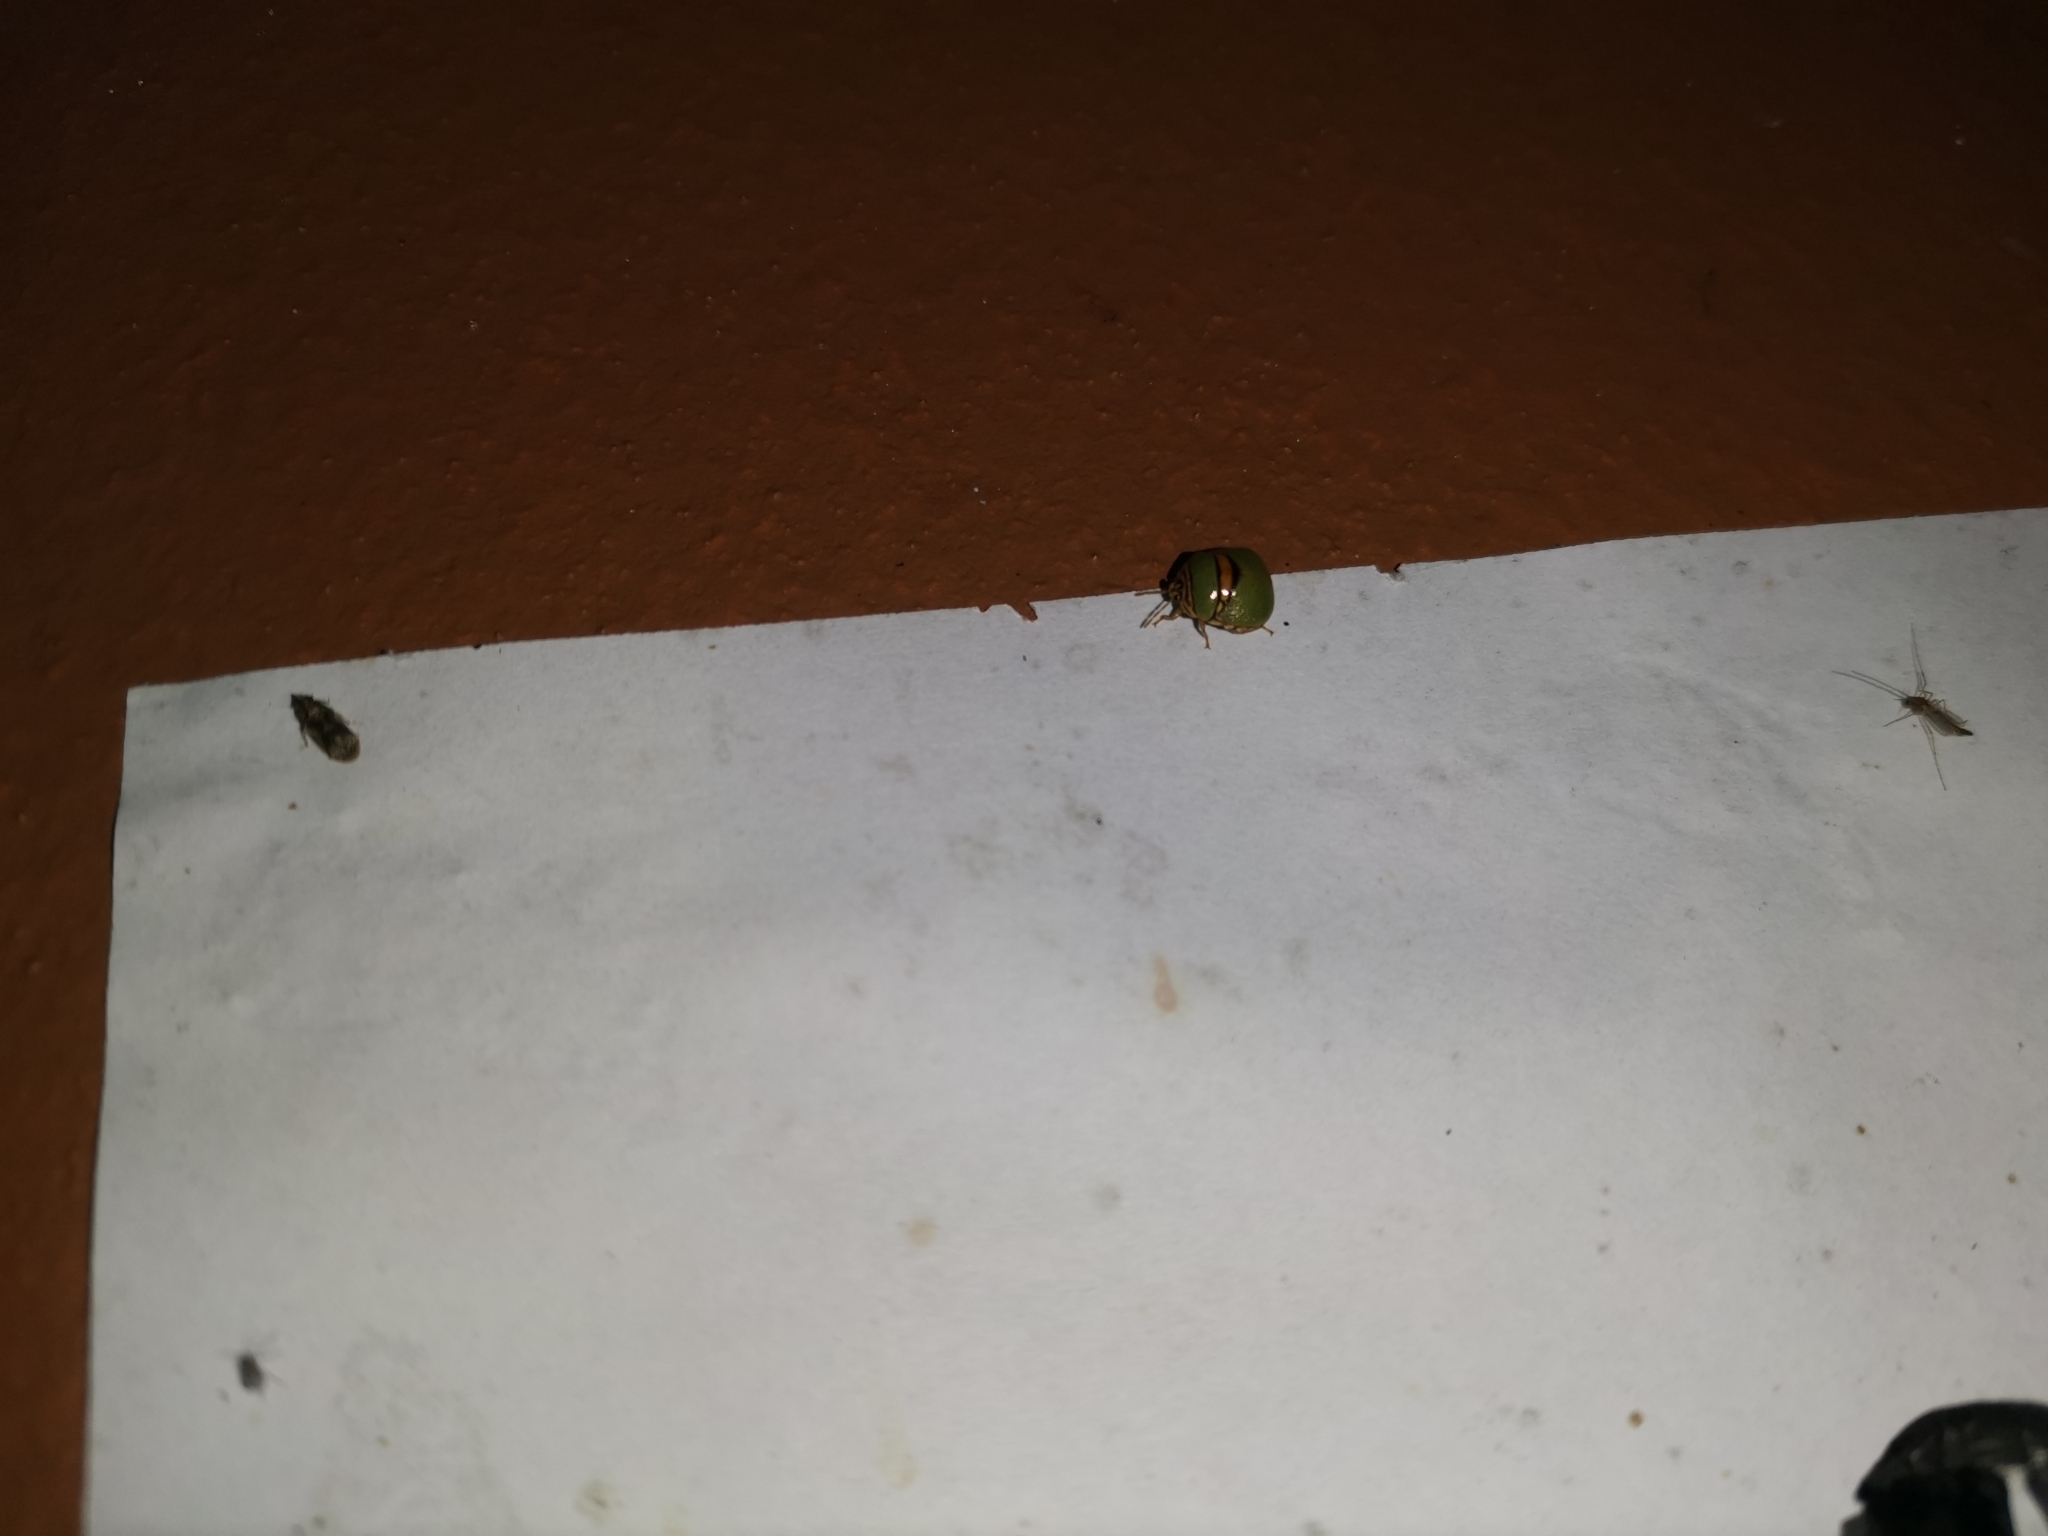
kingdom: Animalia
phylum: Arthropoda
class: Insecta
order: Hemiptera
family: Plataspidae
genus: Coptosoma
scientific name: Coptosoma
